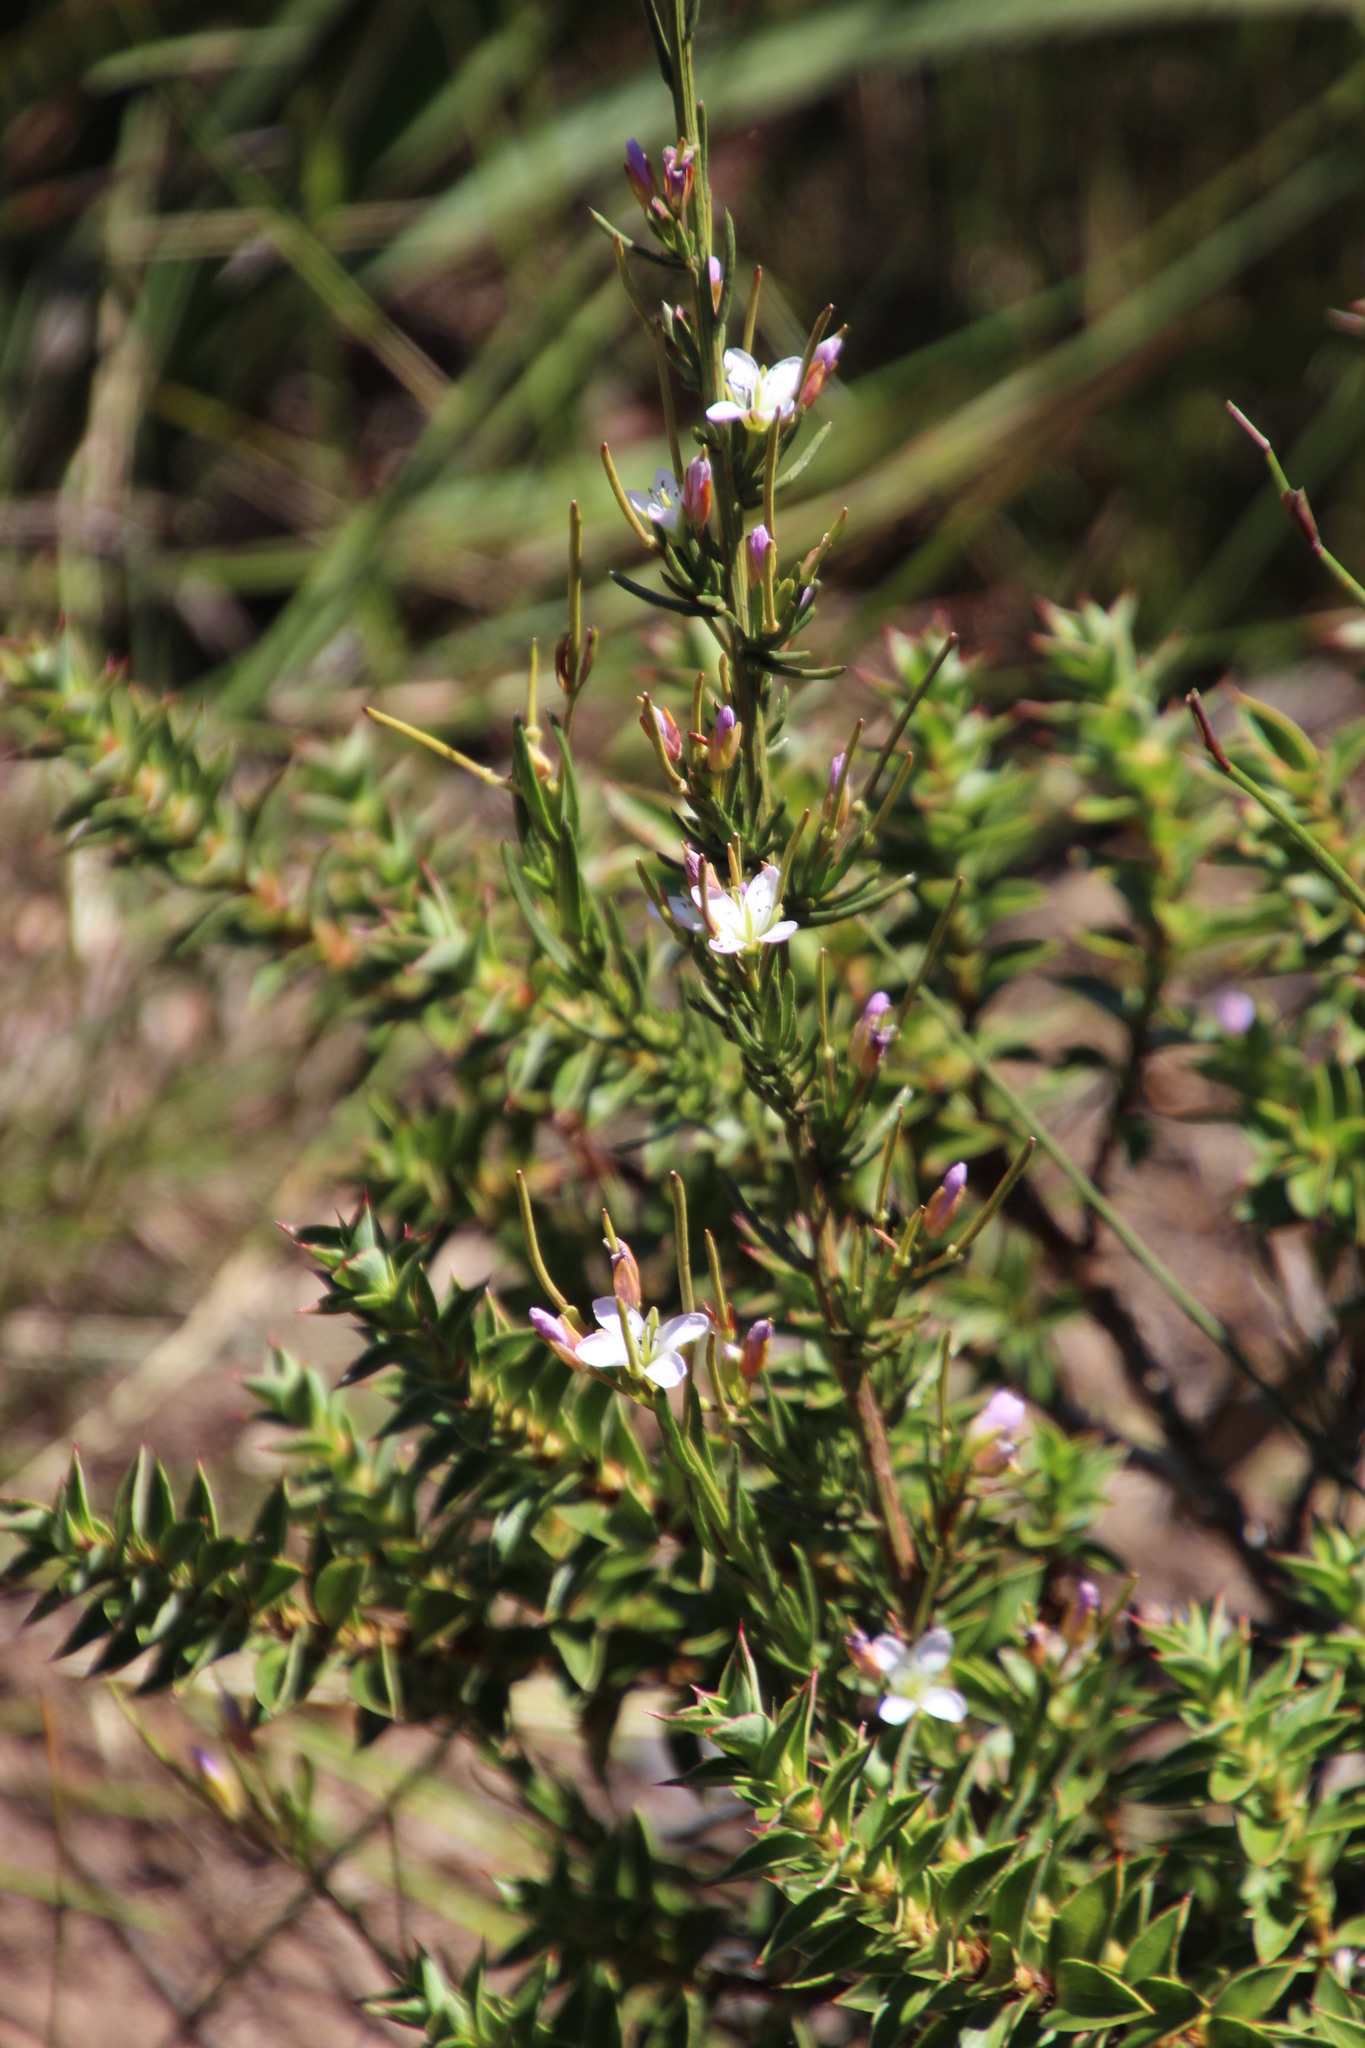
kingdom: Plantae
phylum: Tracheophyta
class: Magnoliopsida
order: Brassicales
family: Brassicaceae
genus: Heliophila
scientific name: Heliophila scoparia
